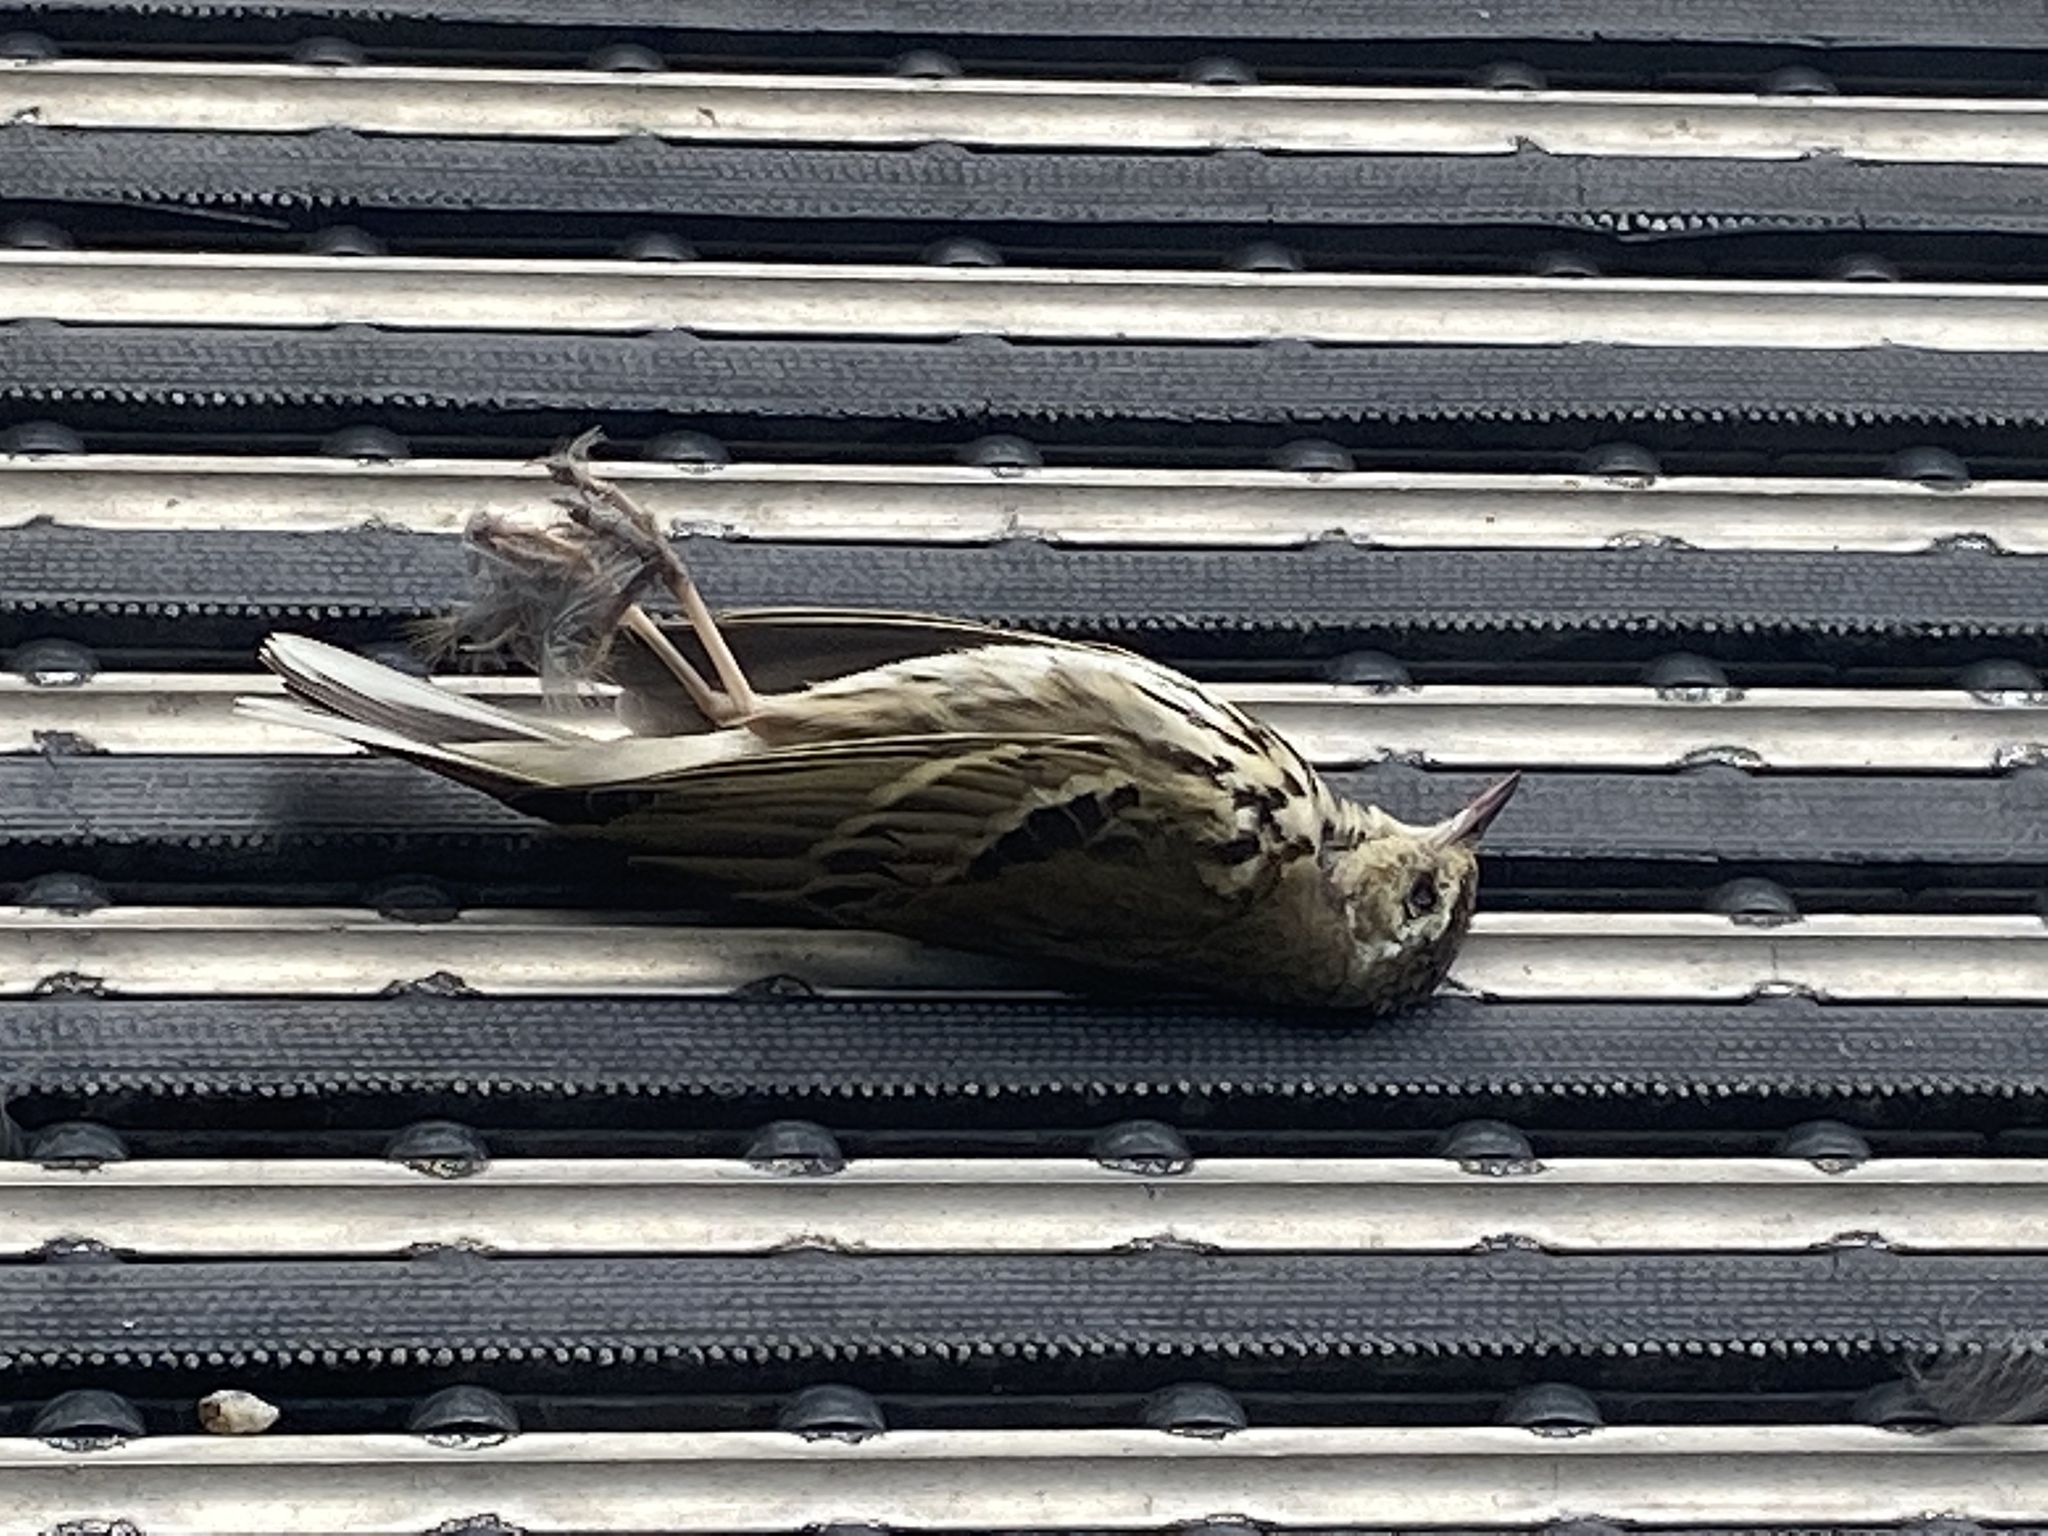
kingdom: Animalia
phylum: Chordata
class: Aves
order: Passeriformes
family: Motacillidae
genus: Anthus
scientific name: Anthus hodgsoni
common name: Olive-backed pipit
